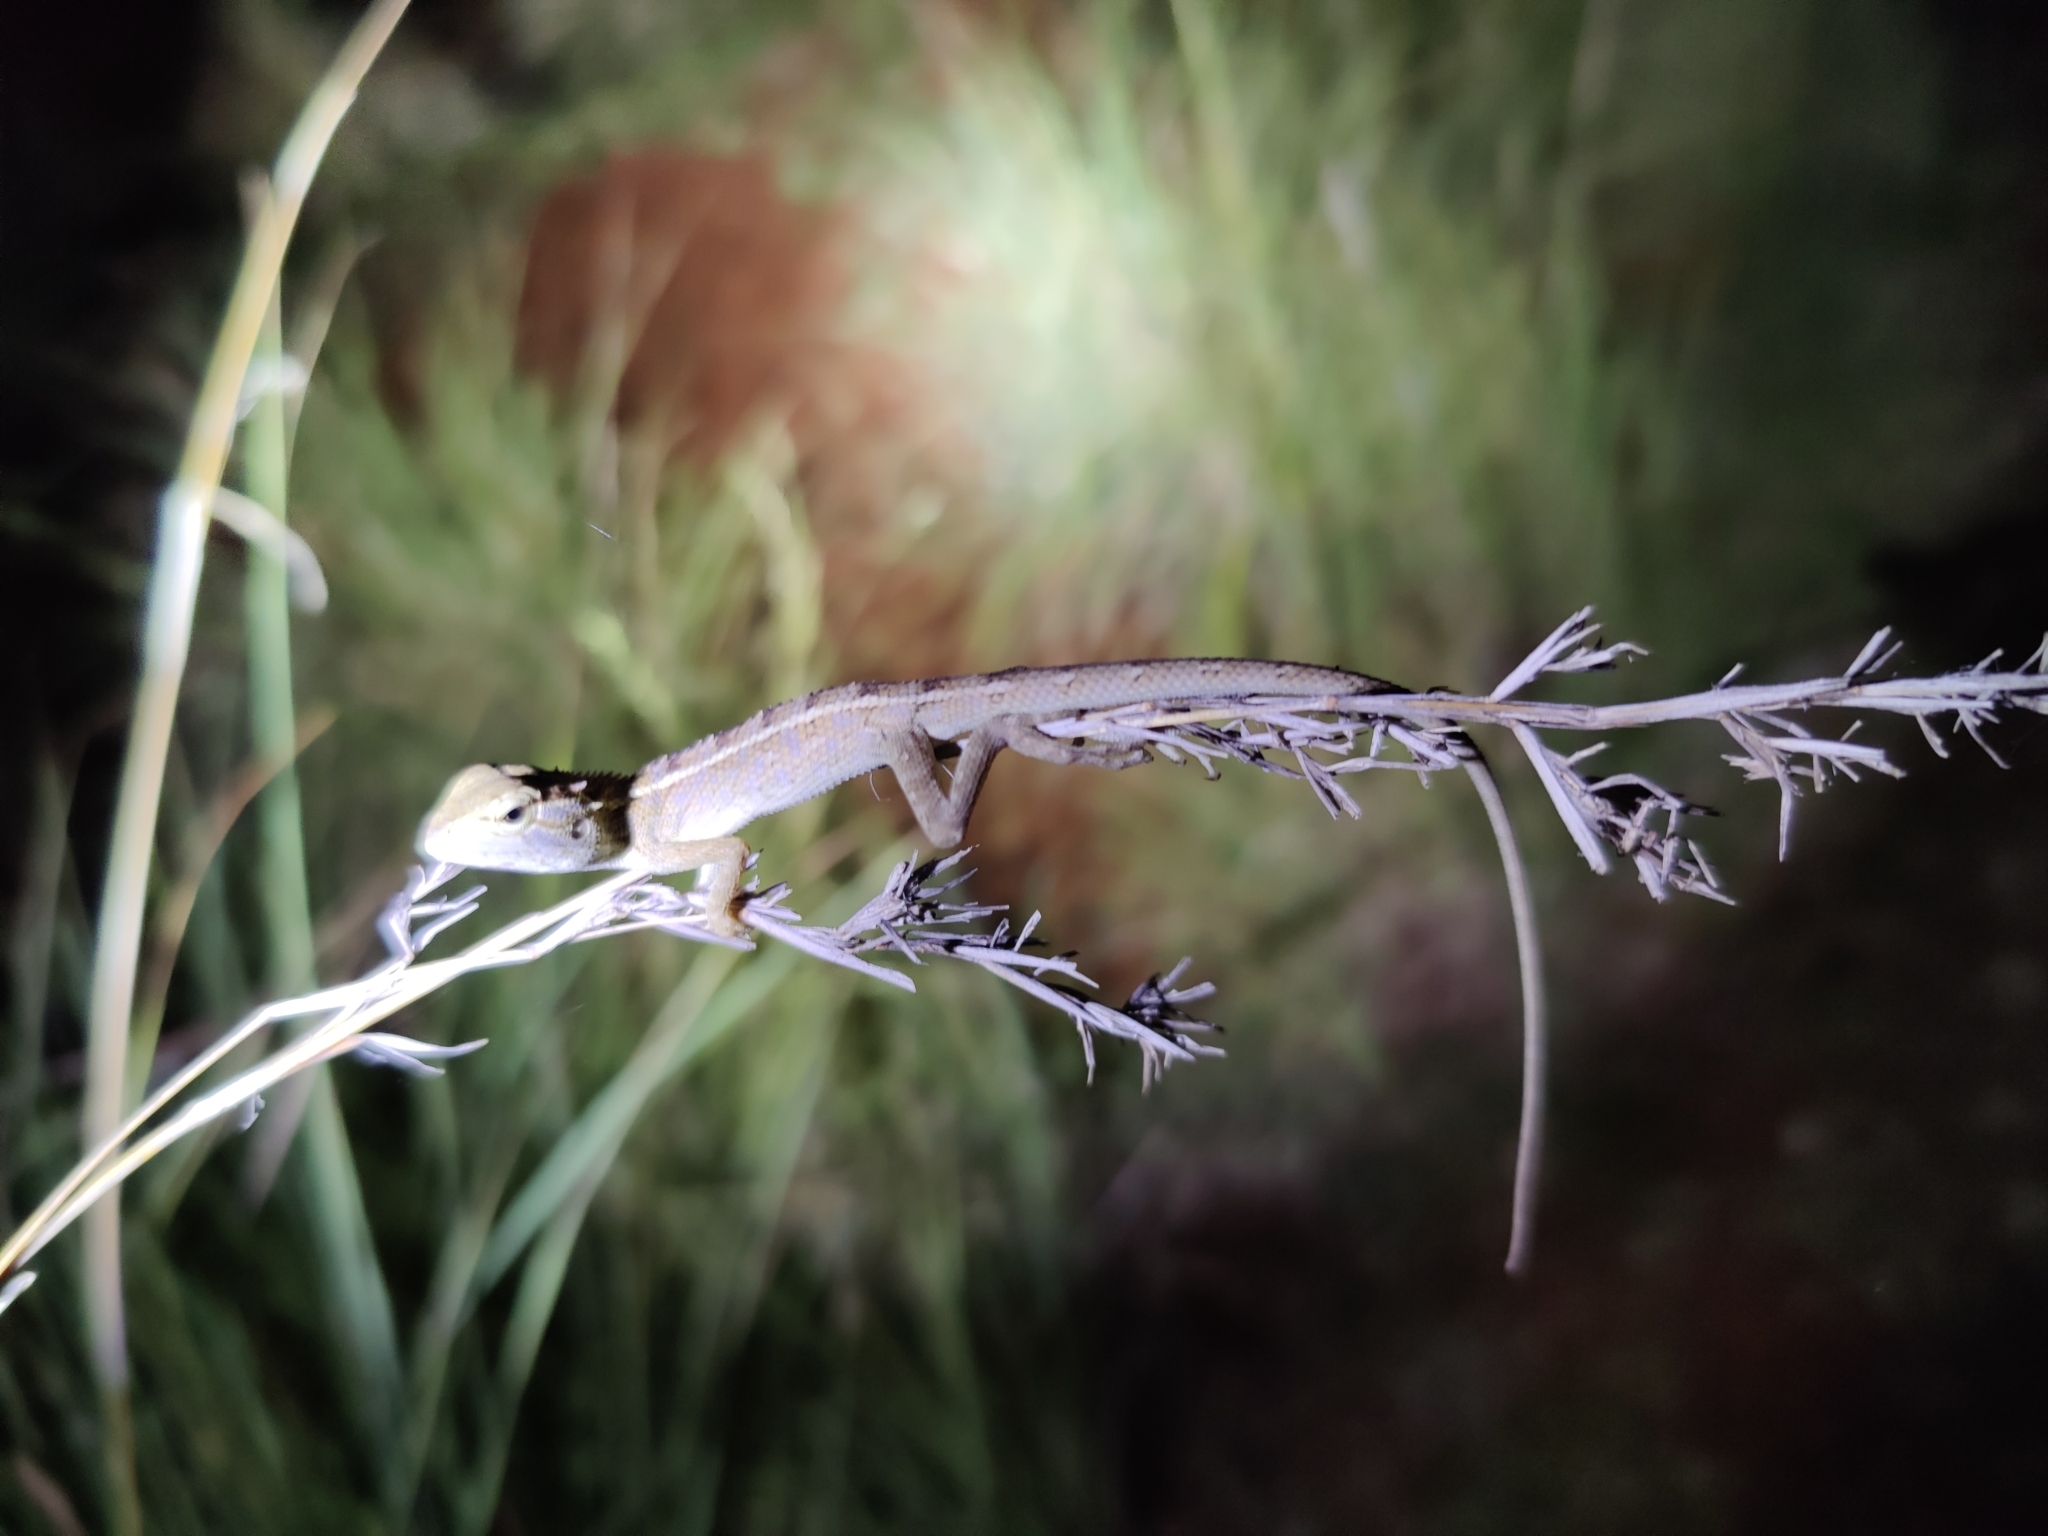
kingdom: Animalia
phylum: Chordata
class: Squamata
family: Agamidae
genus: Calotes
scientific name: Calotes versicolor
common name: Oriental garden lizard
